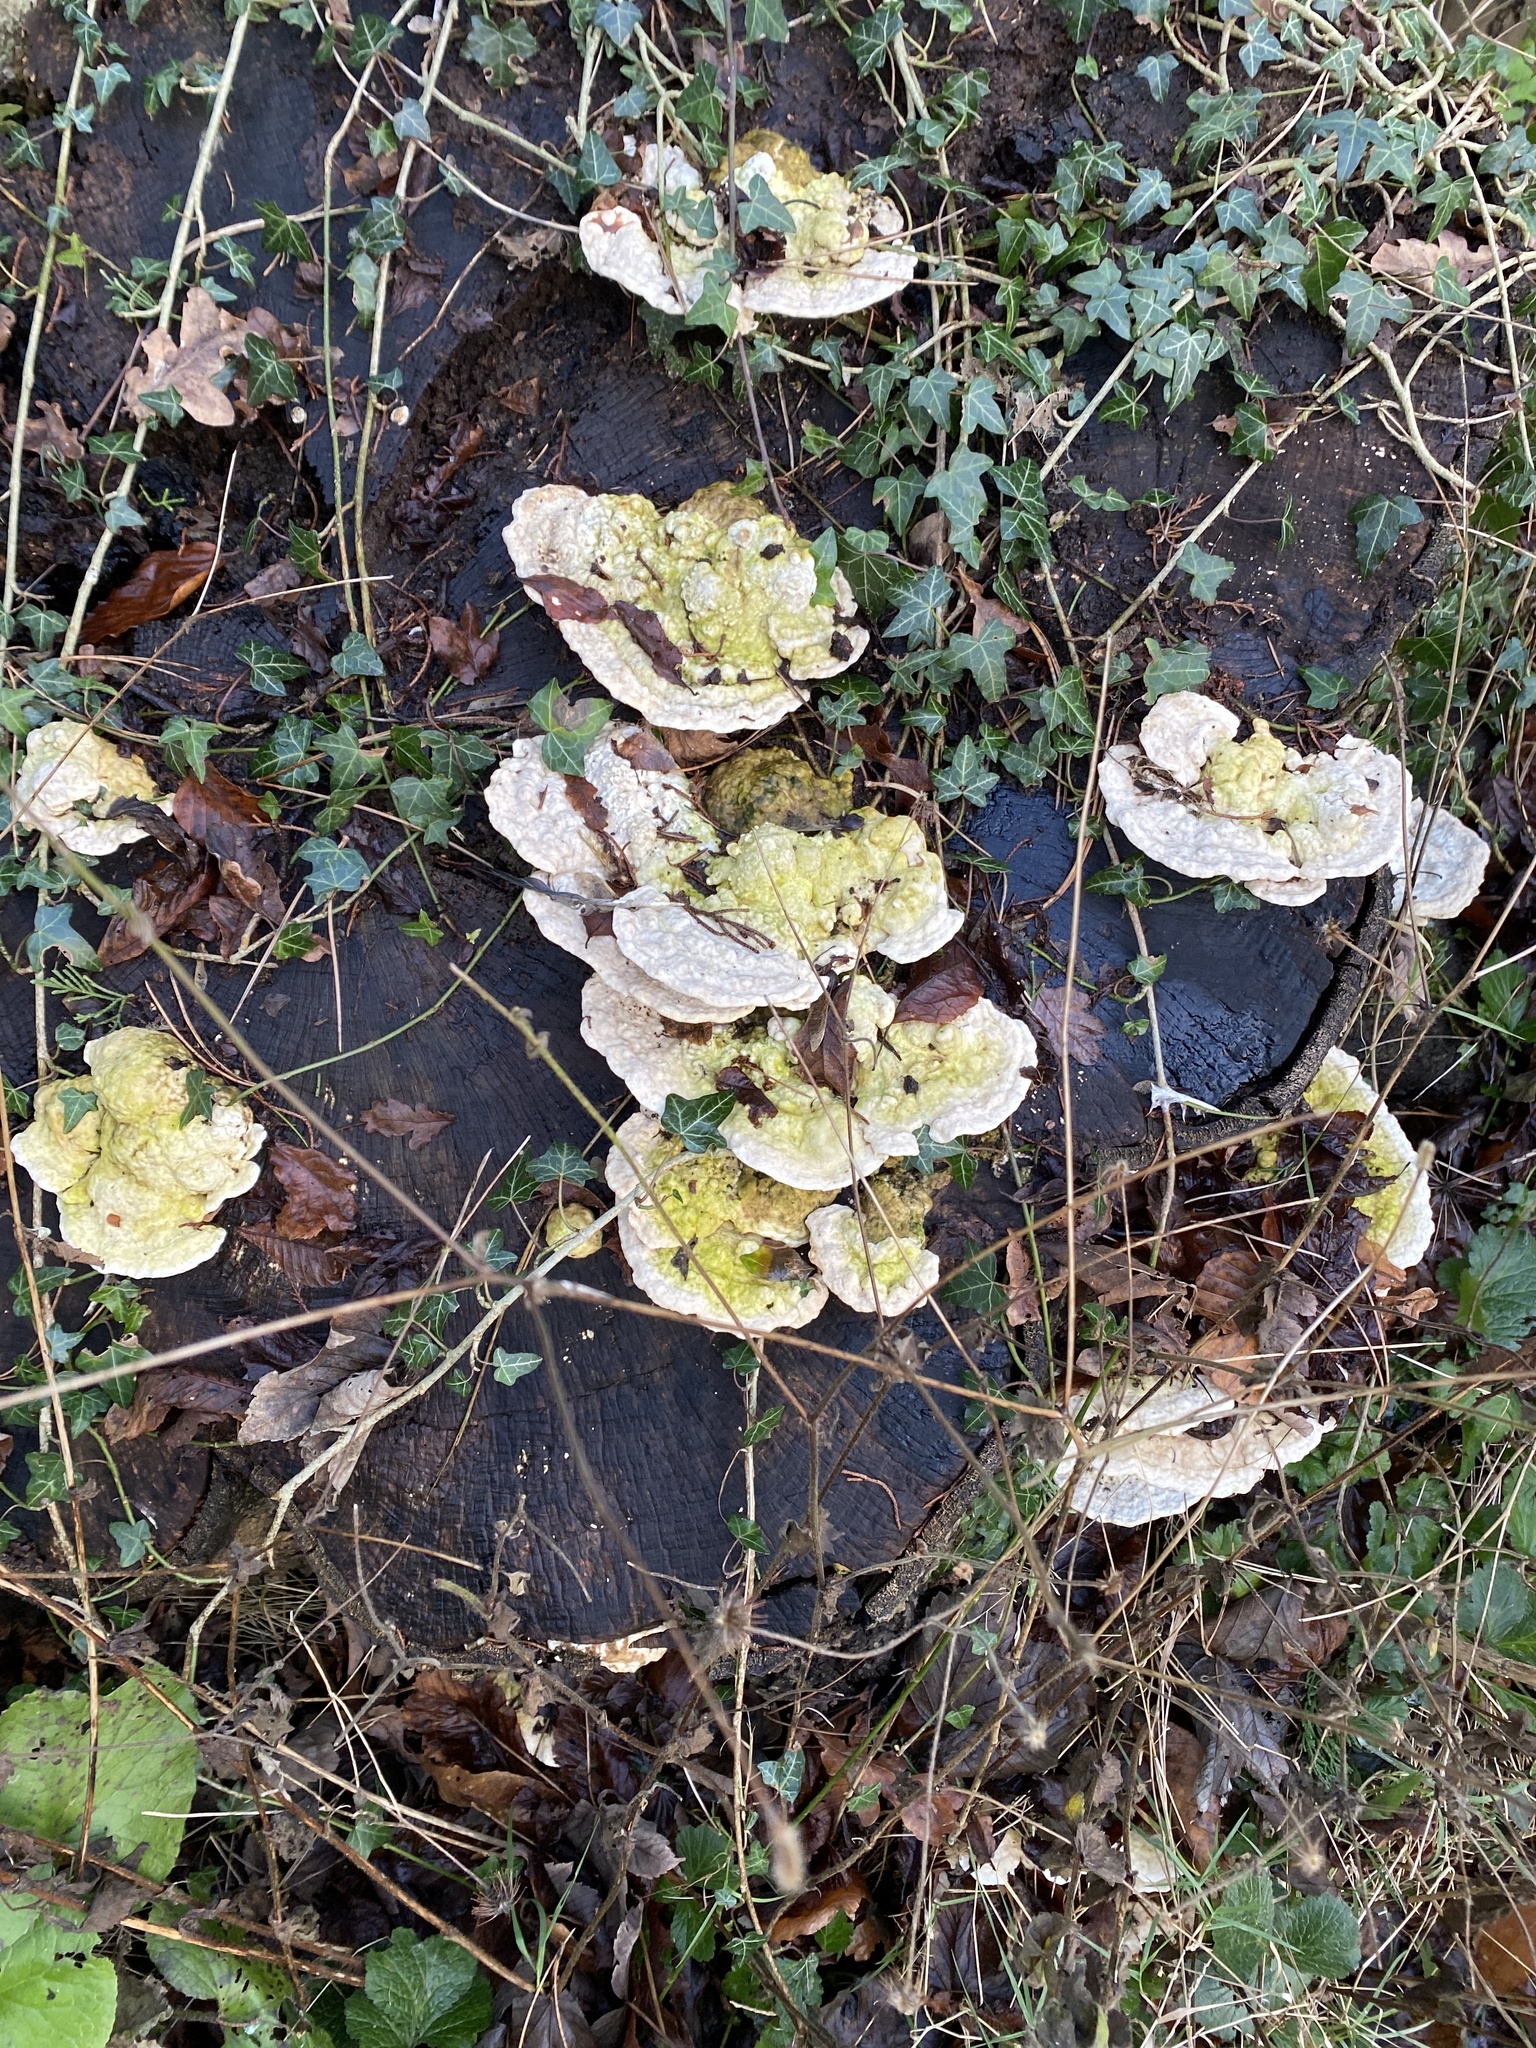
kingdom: Fungi
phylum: Basidiomycota
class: Agaricomycetes
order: Polyporales
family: Polyporaceae
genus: Trametes
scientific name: Trametes gibbosa
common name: Lumpy bracket
